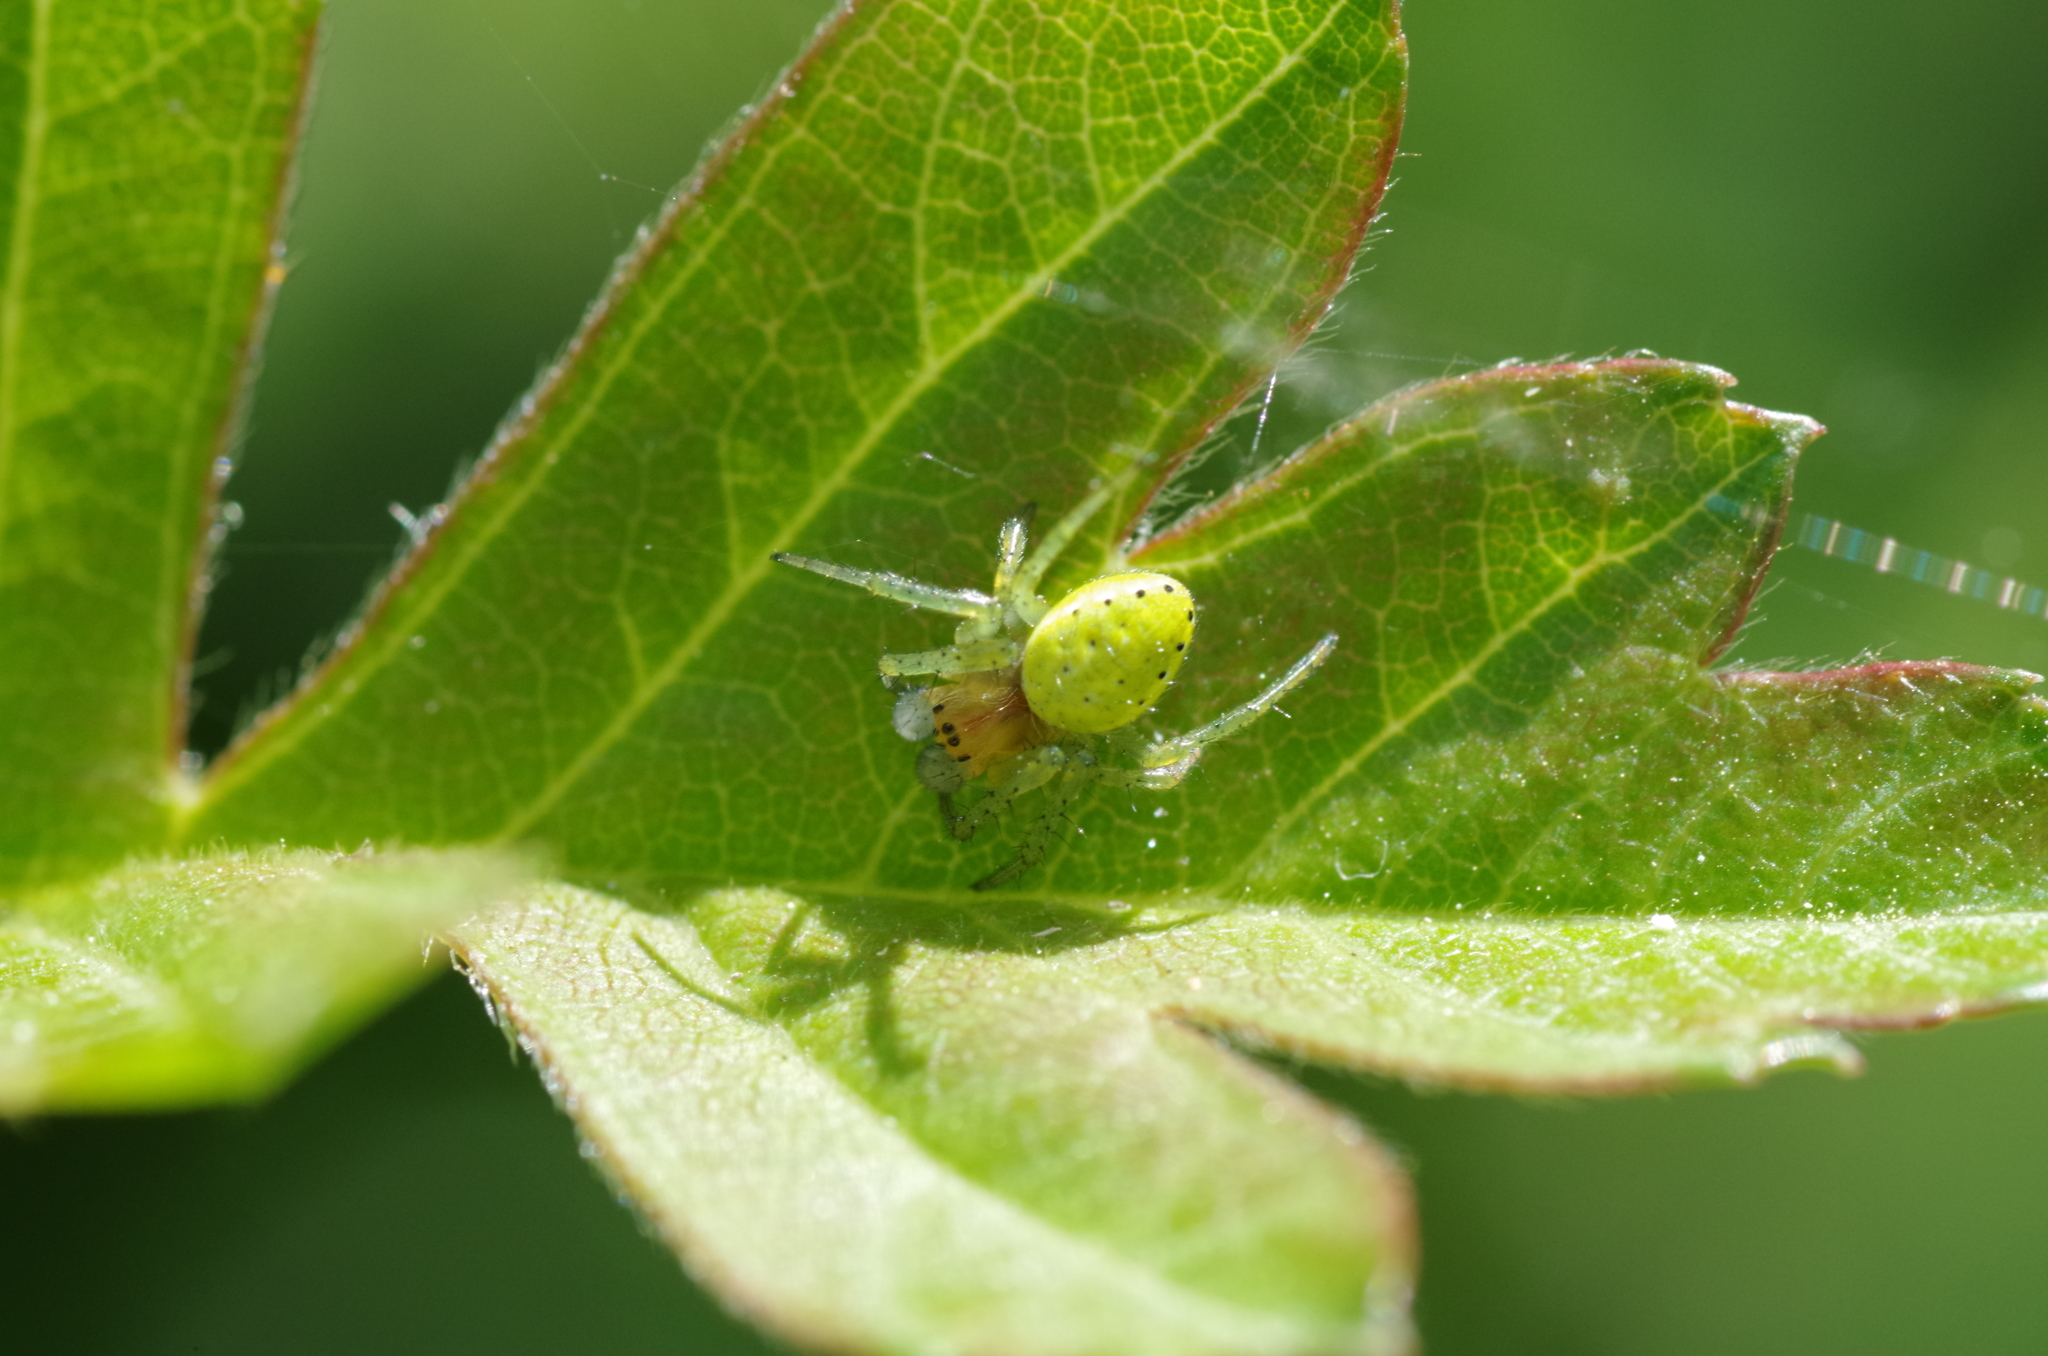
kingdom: Animalia
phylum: Arthropoda
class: Arachnida
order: Araneae
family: Araneidae
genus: Araniella
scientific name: Araniella
